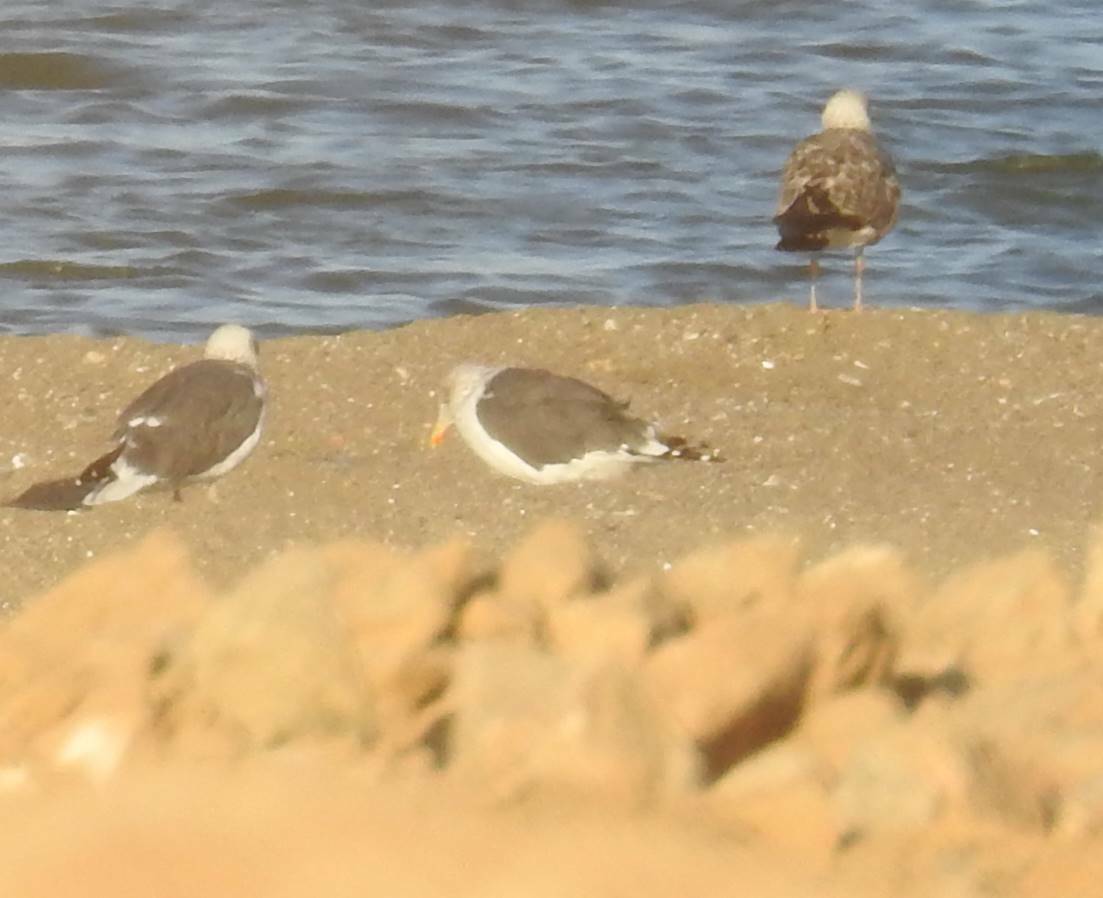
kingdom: Animalia
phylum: Chordata
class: Aves
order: Charadriiformes
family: Laridae
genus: Larus
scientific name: Larus fuscus
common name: Lesser black-backed gull
